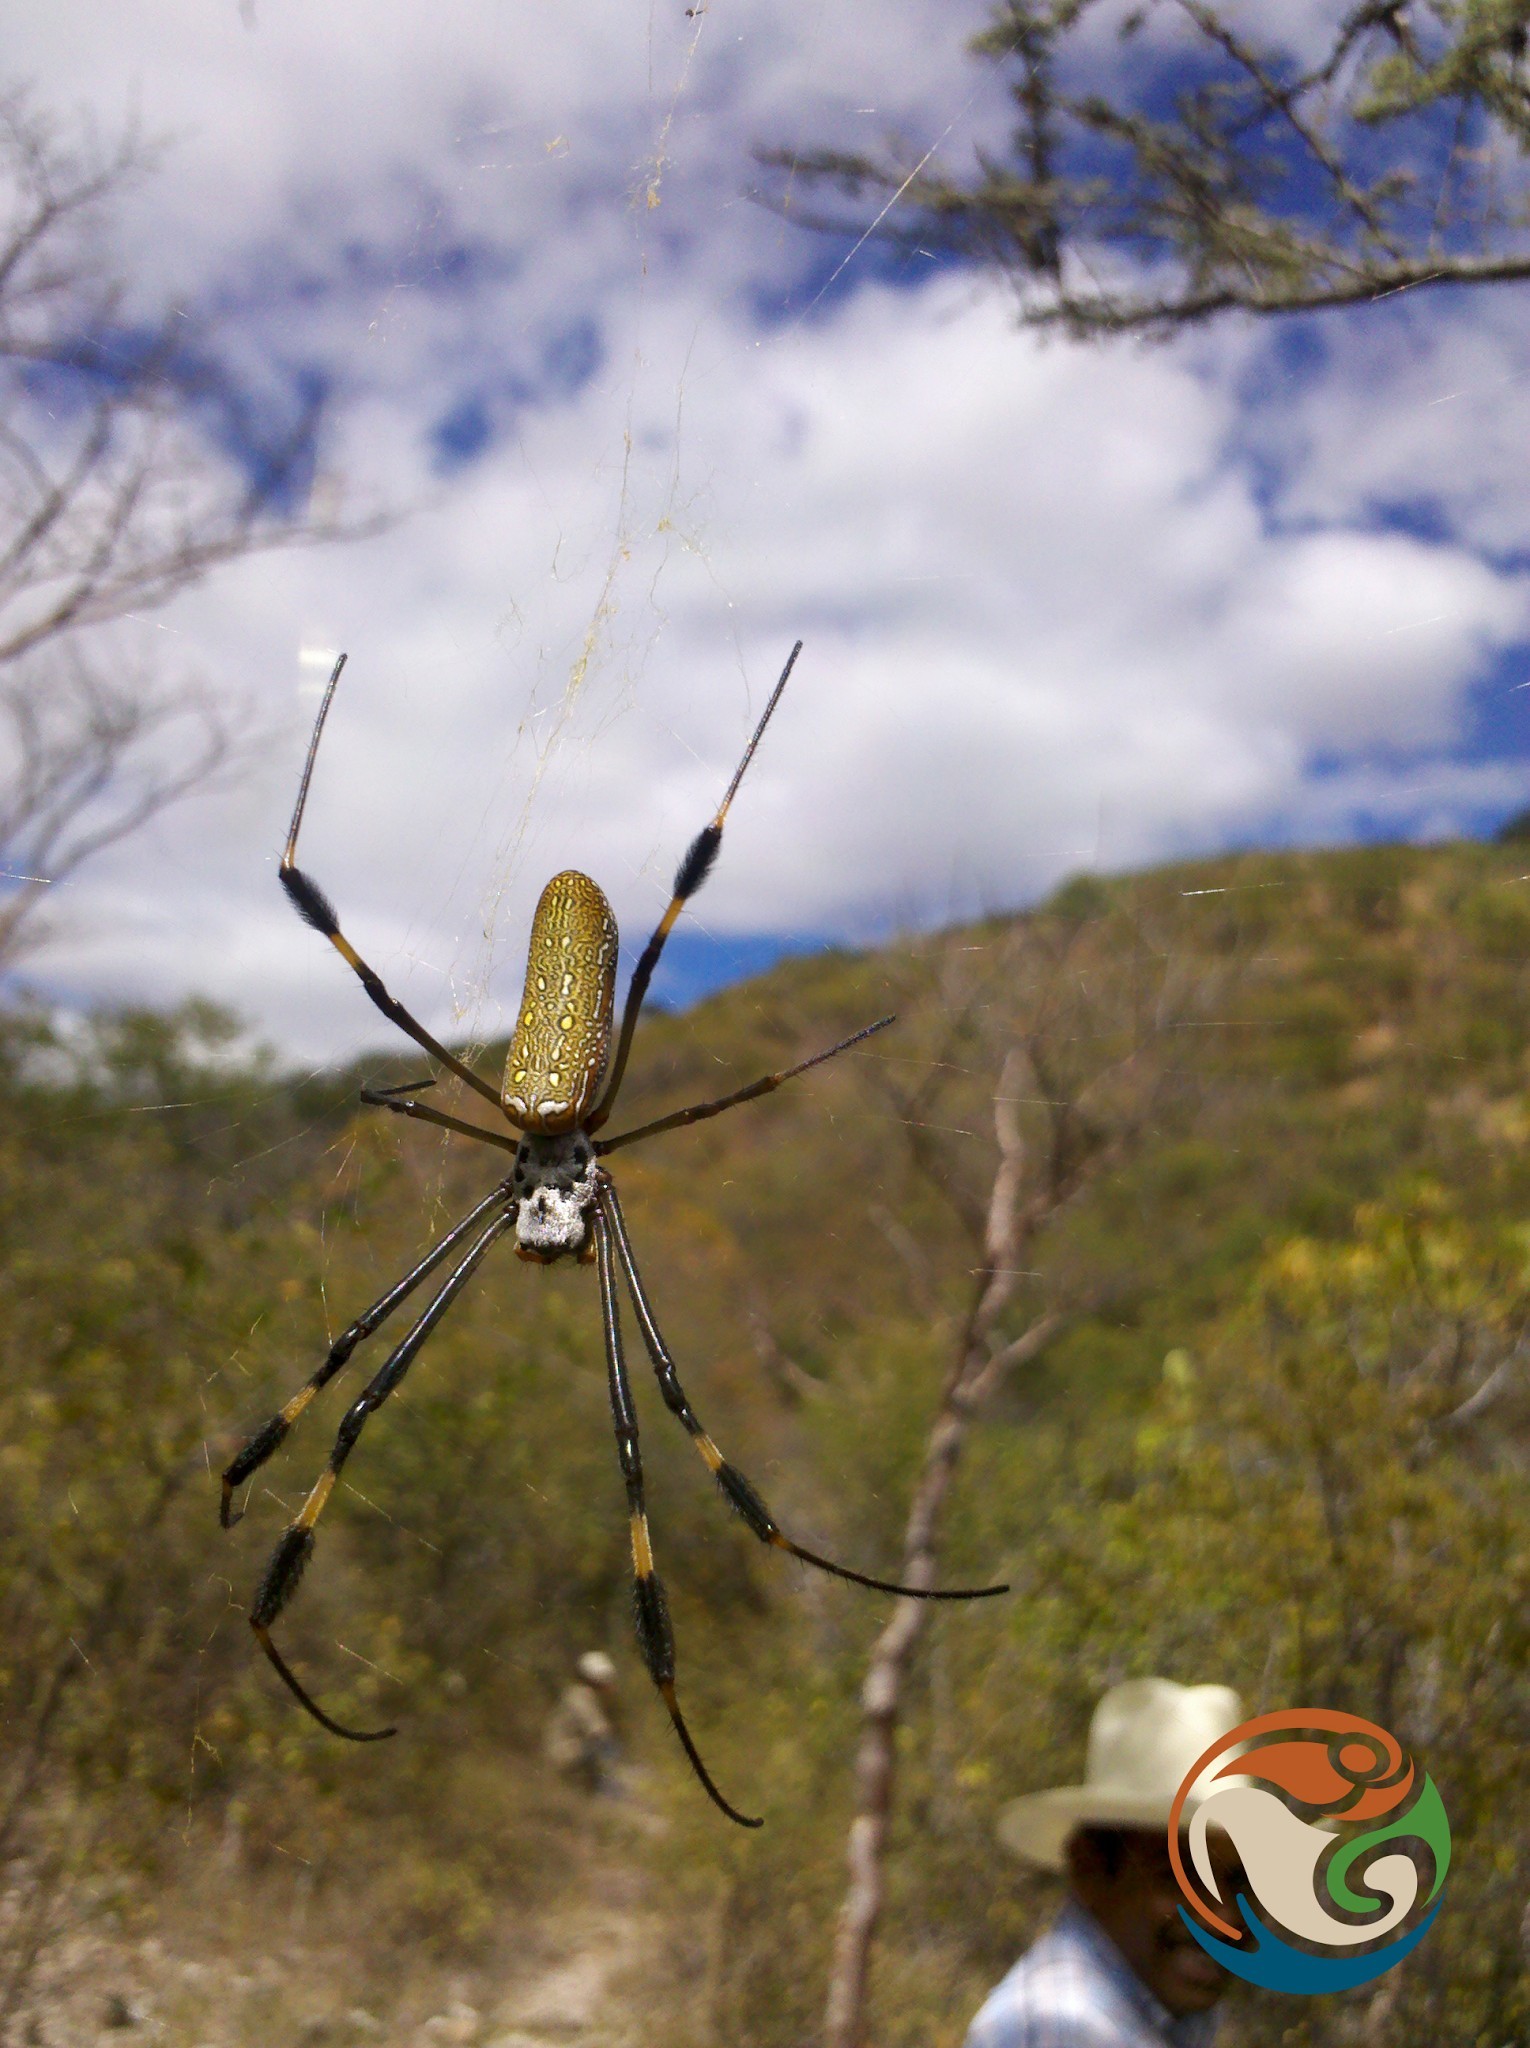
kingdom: Animalia
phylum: Arthropoda
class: Arachnida
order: Araneae
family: Araneidae
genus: Trichonephila
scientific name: Trichonephila clavipes
